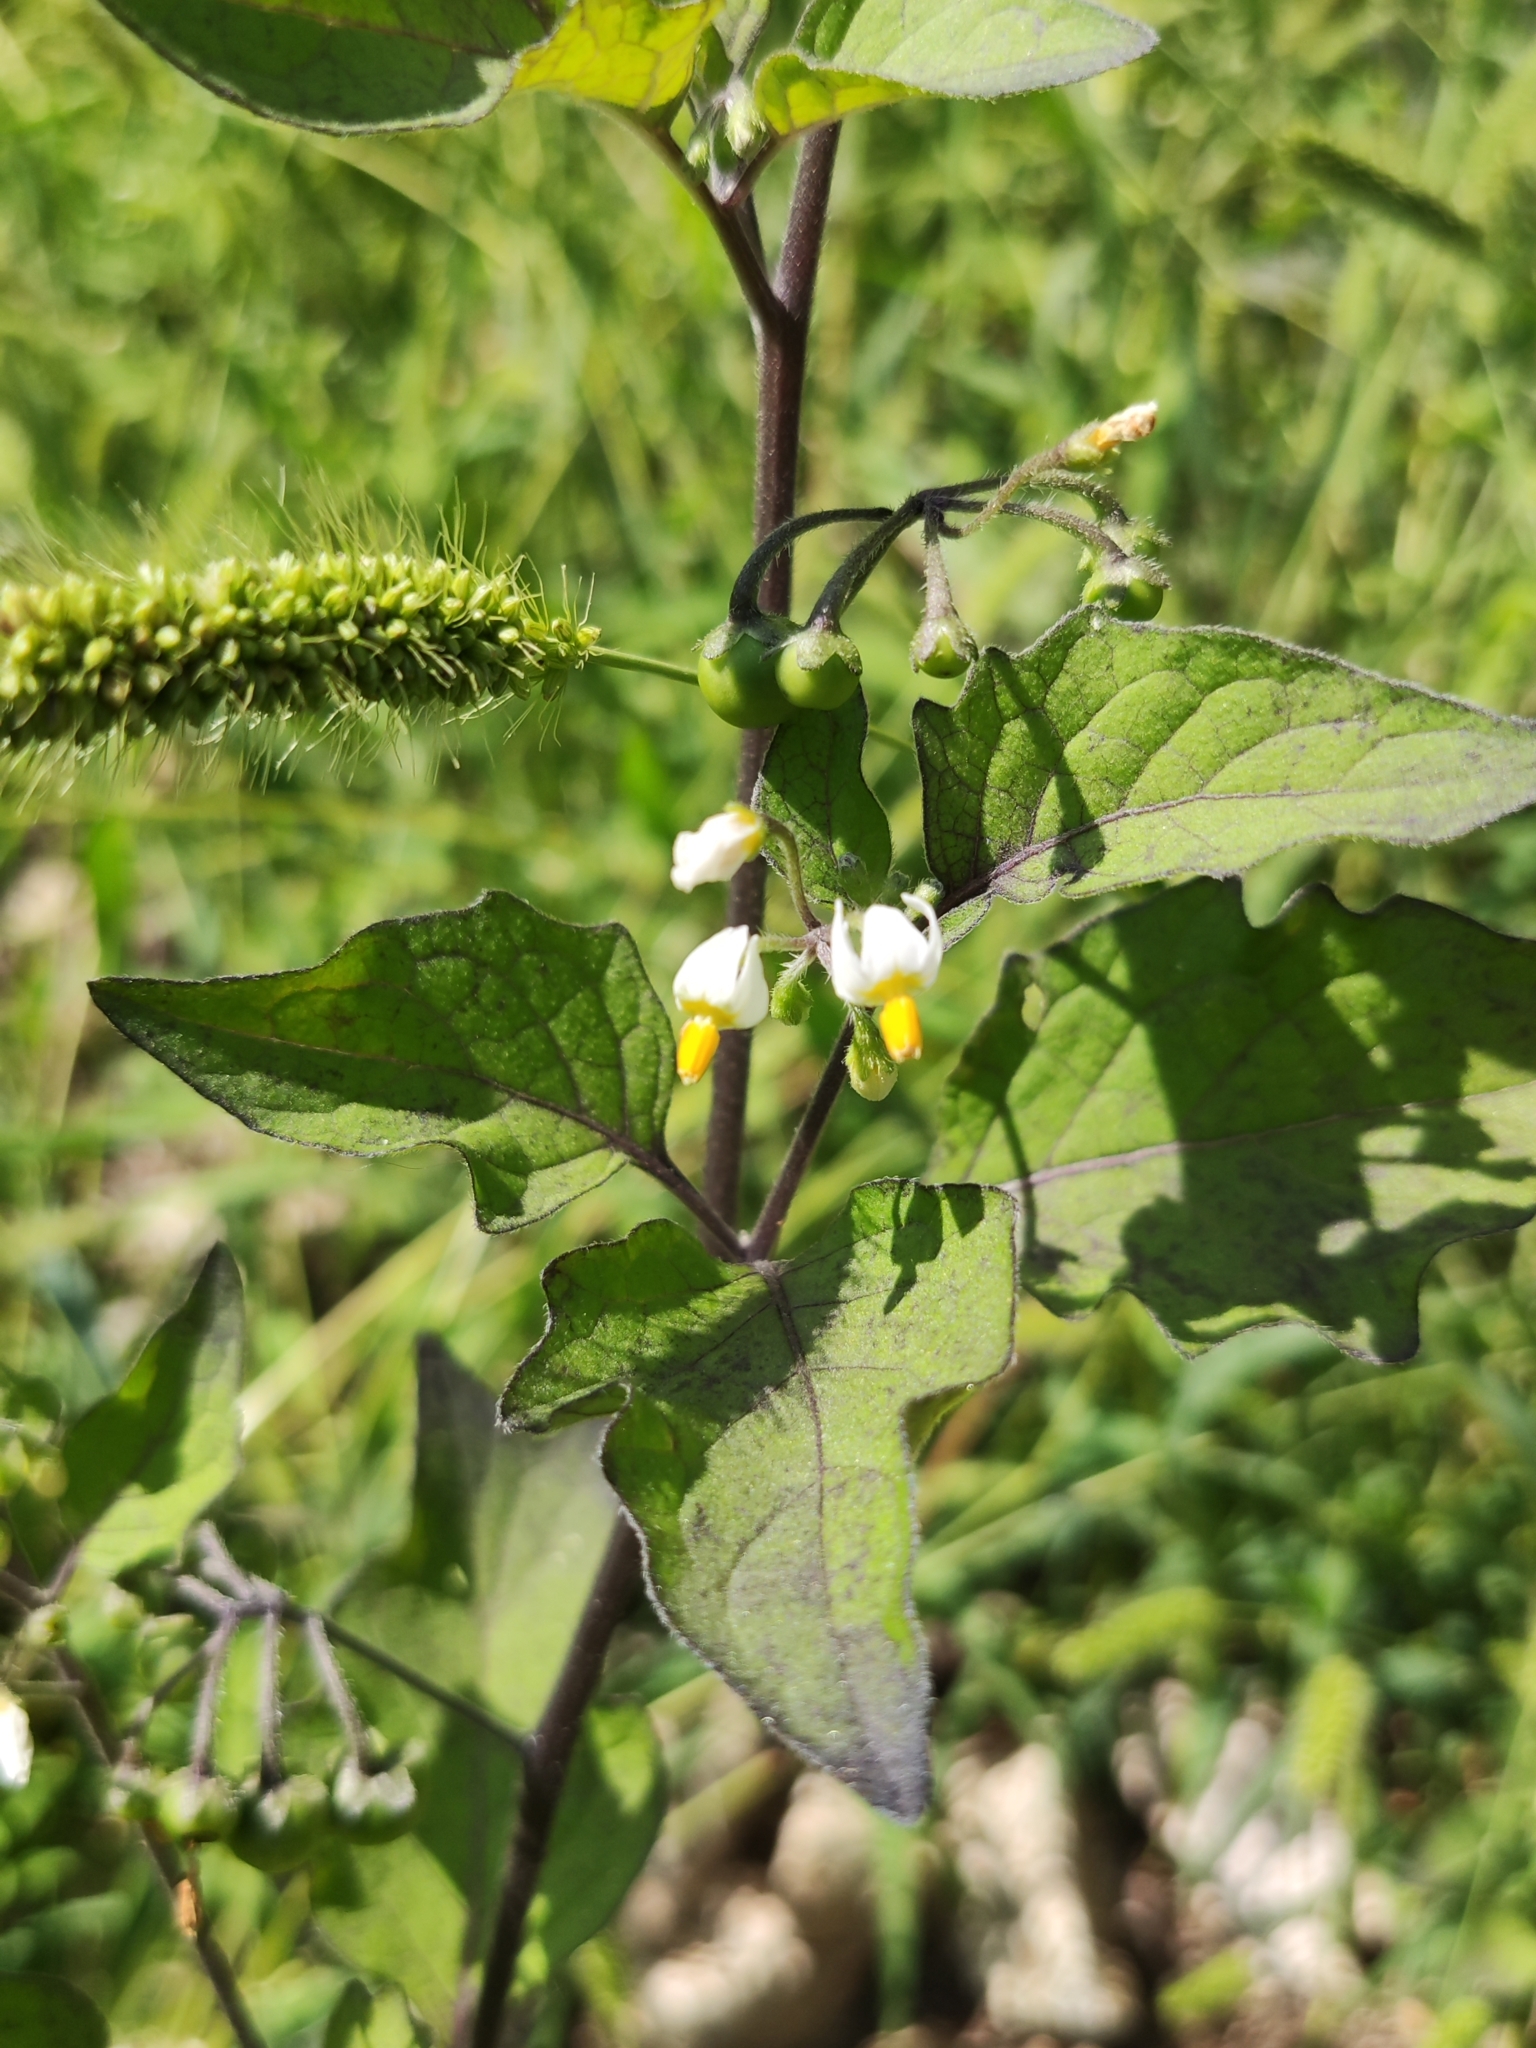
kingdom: Plantae
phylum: Tracheophyta
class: Magnoliopsida
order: Solanales
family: Solanaceae
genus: Solanum
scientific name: Solanum nigrum
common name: Black nightshade
